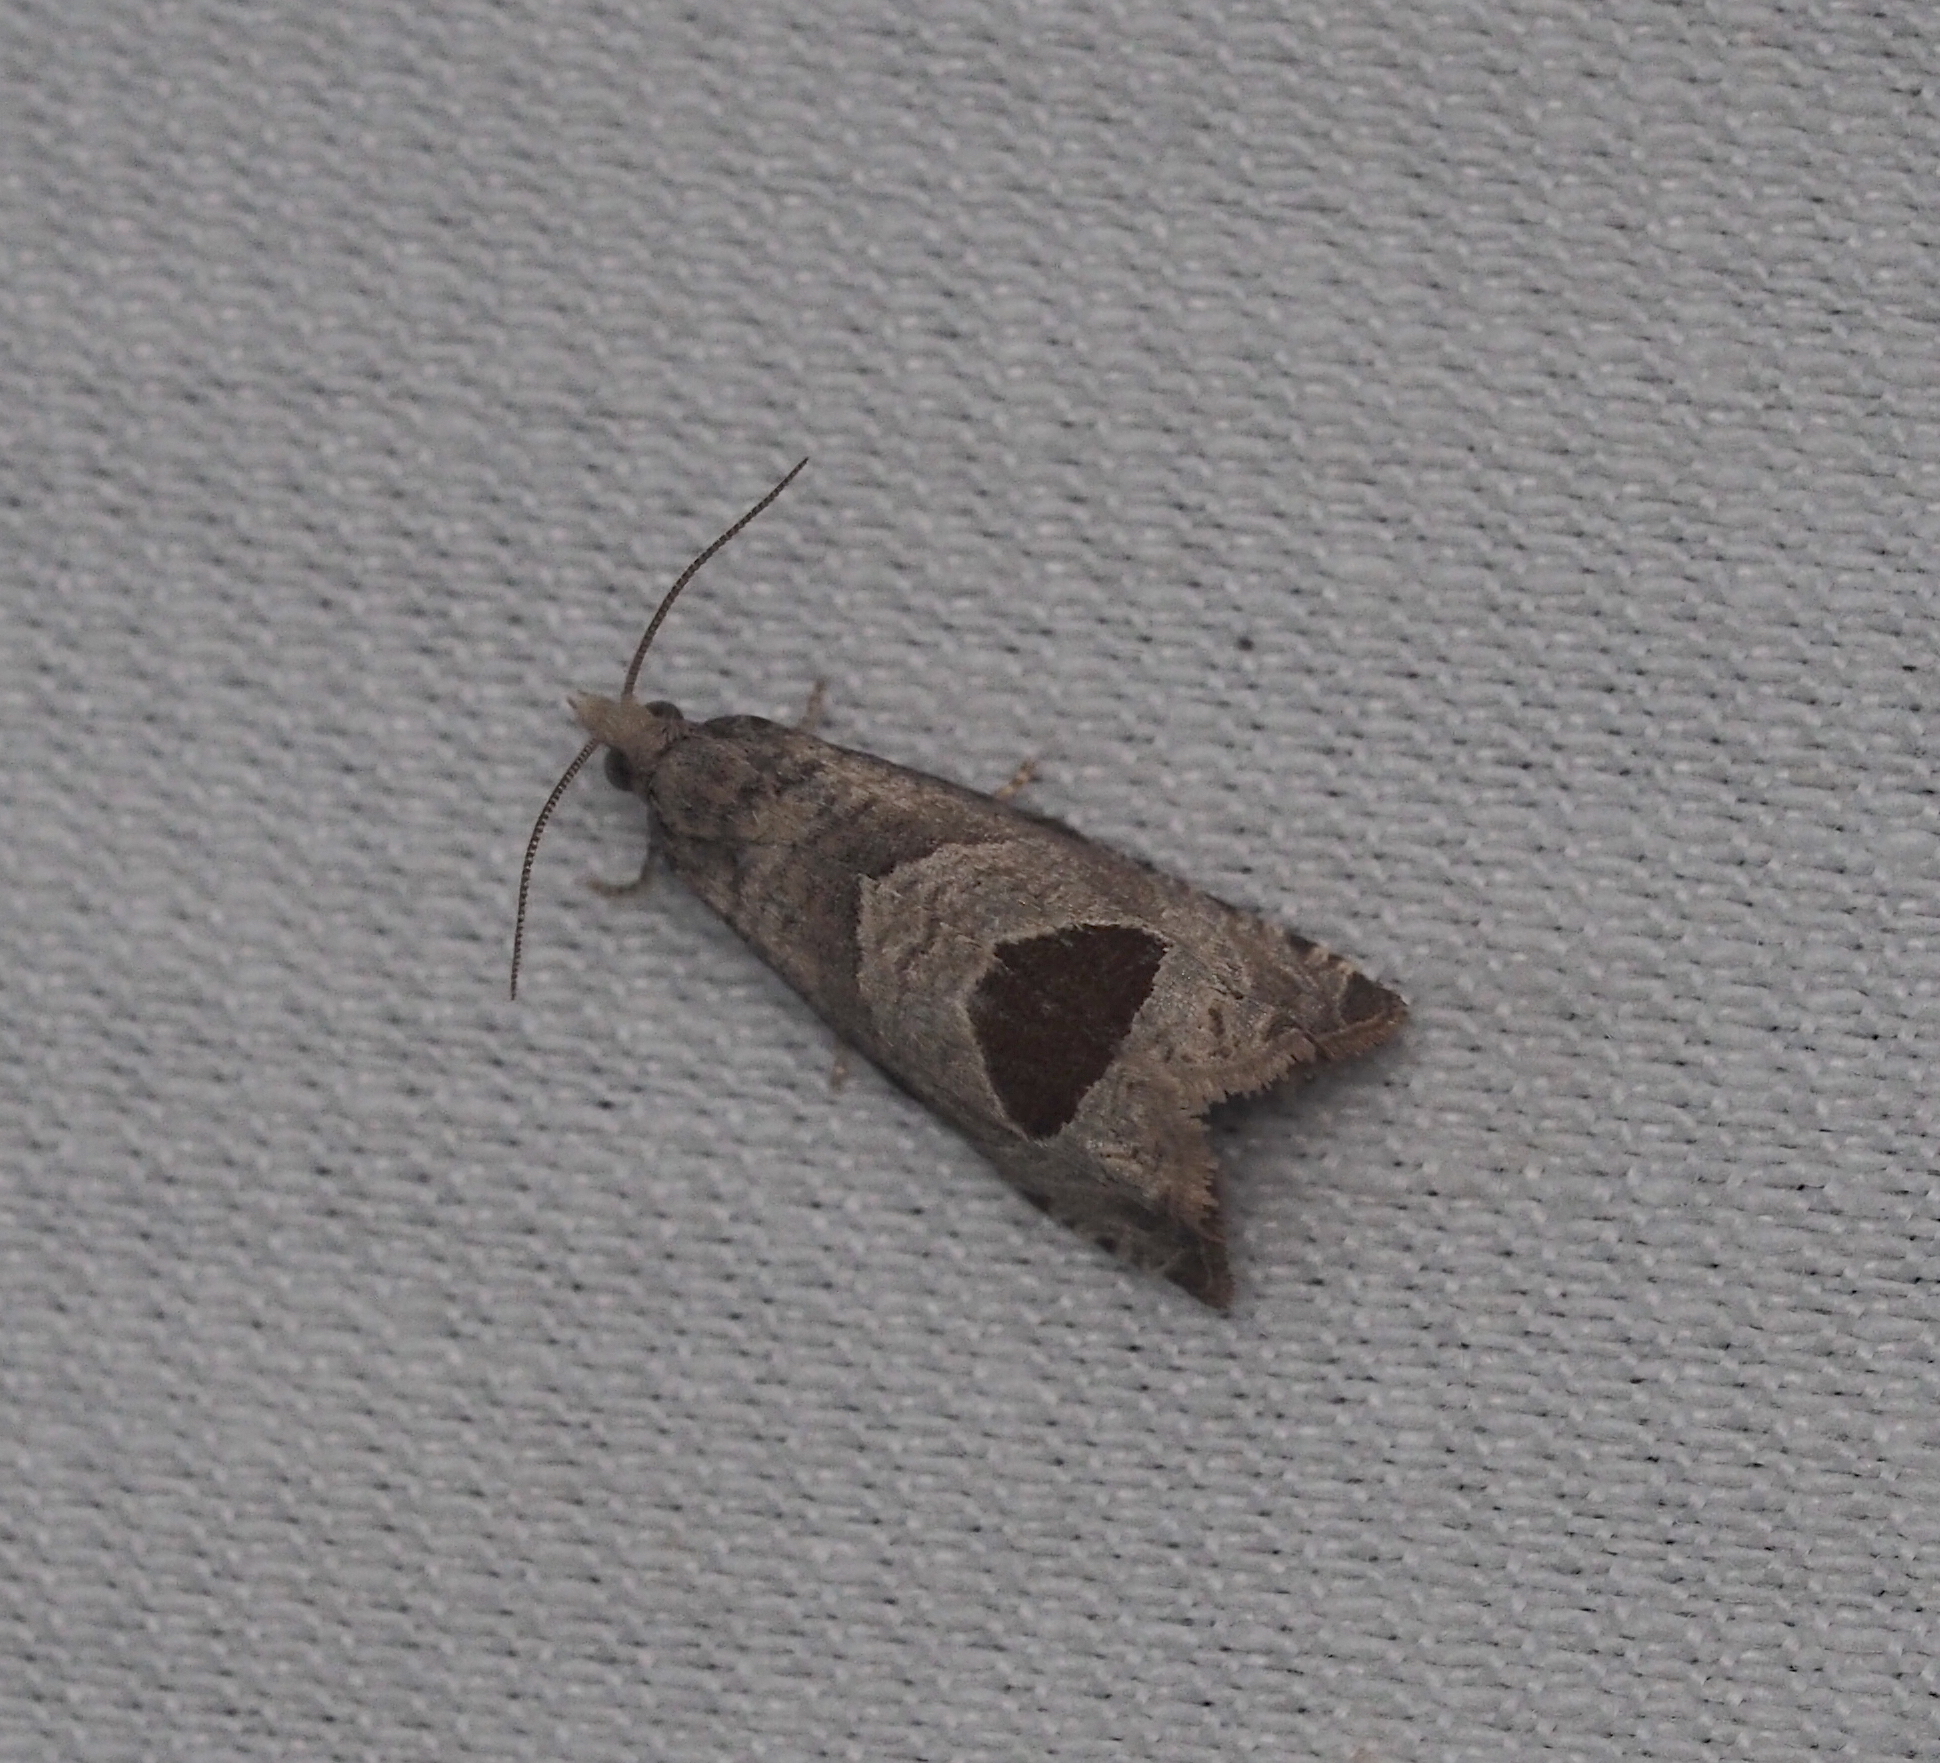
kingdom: Animalia
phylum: Arthropoda
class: Insecta
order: Lepidoptera
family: Tortricidae
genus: Notocelia
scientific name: Notocelia uddmanniana
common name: Bramble shoot moth
